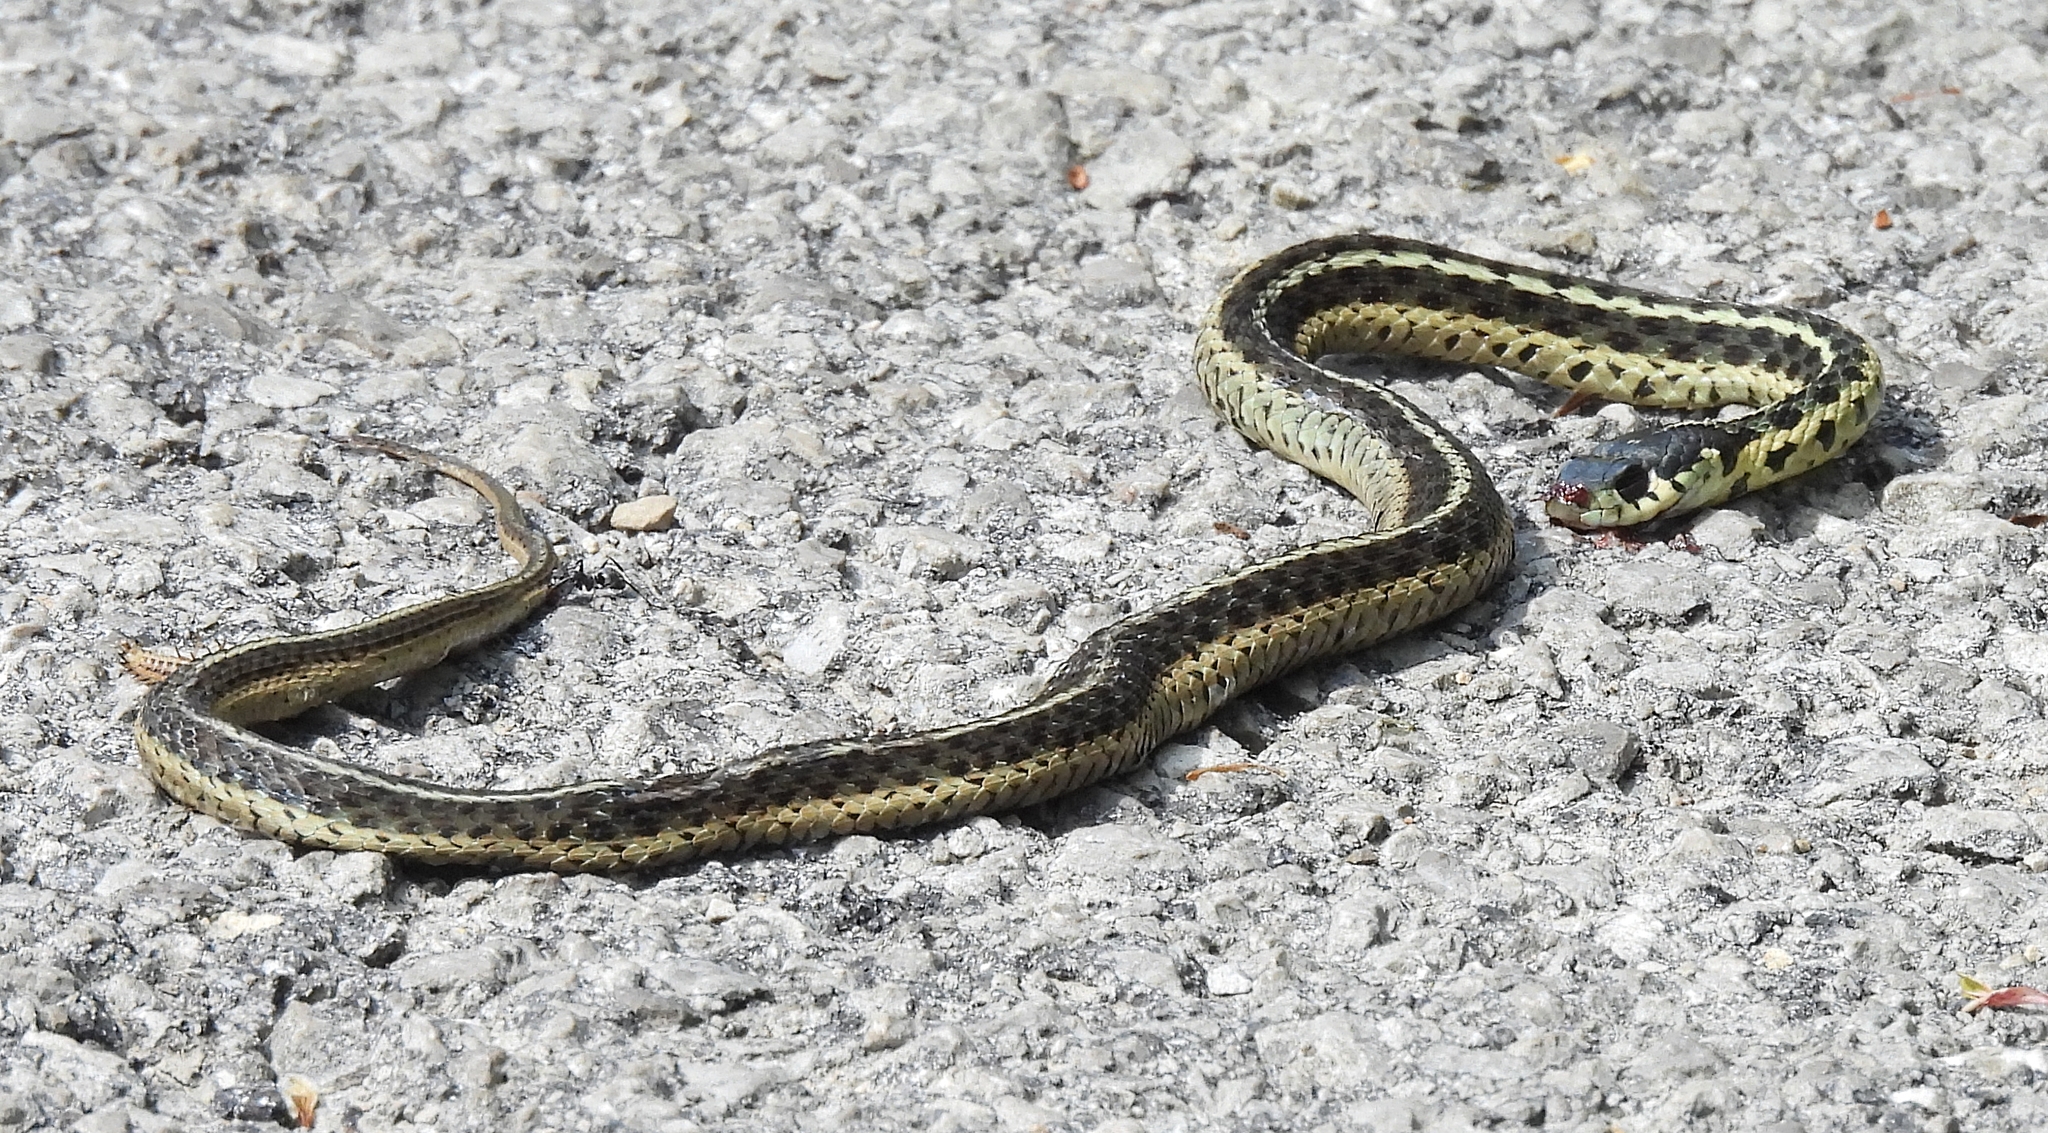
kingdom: Animalia
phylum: Chordata
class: Squamata
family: Colubridae
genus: Thamnophis
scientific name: Thamnophis sirtalis
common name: Common garter snake
